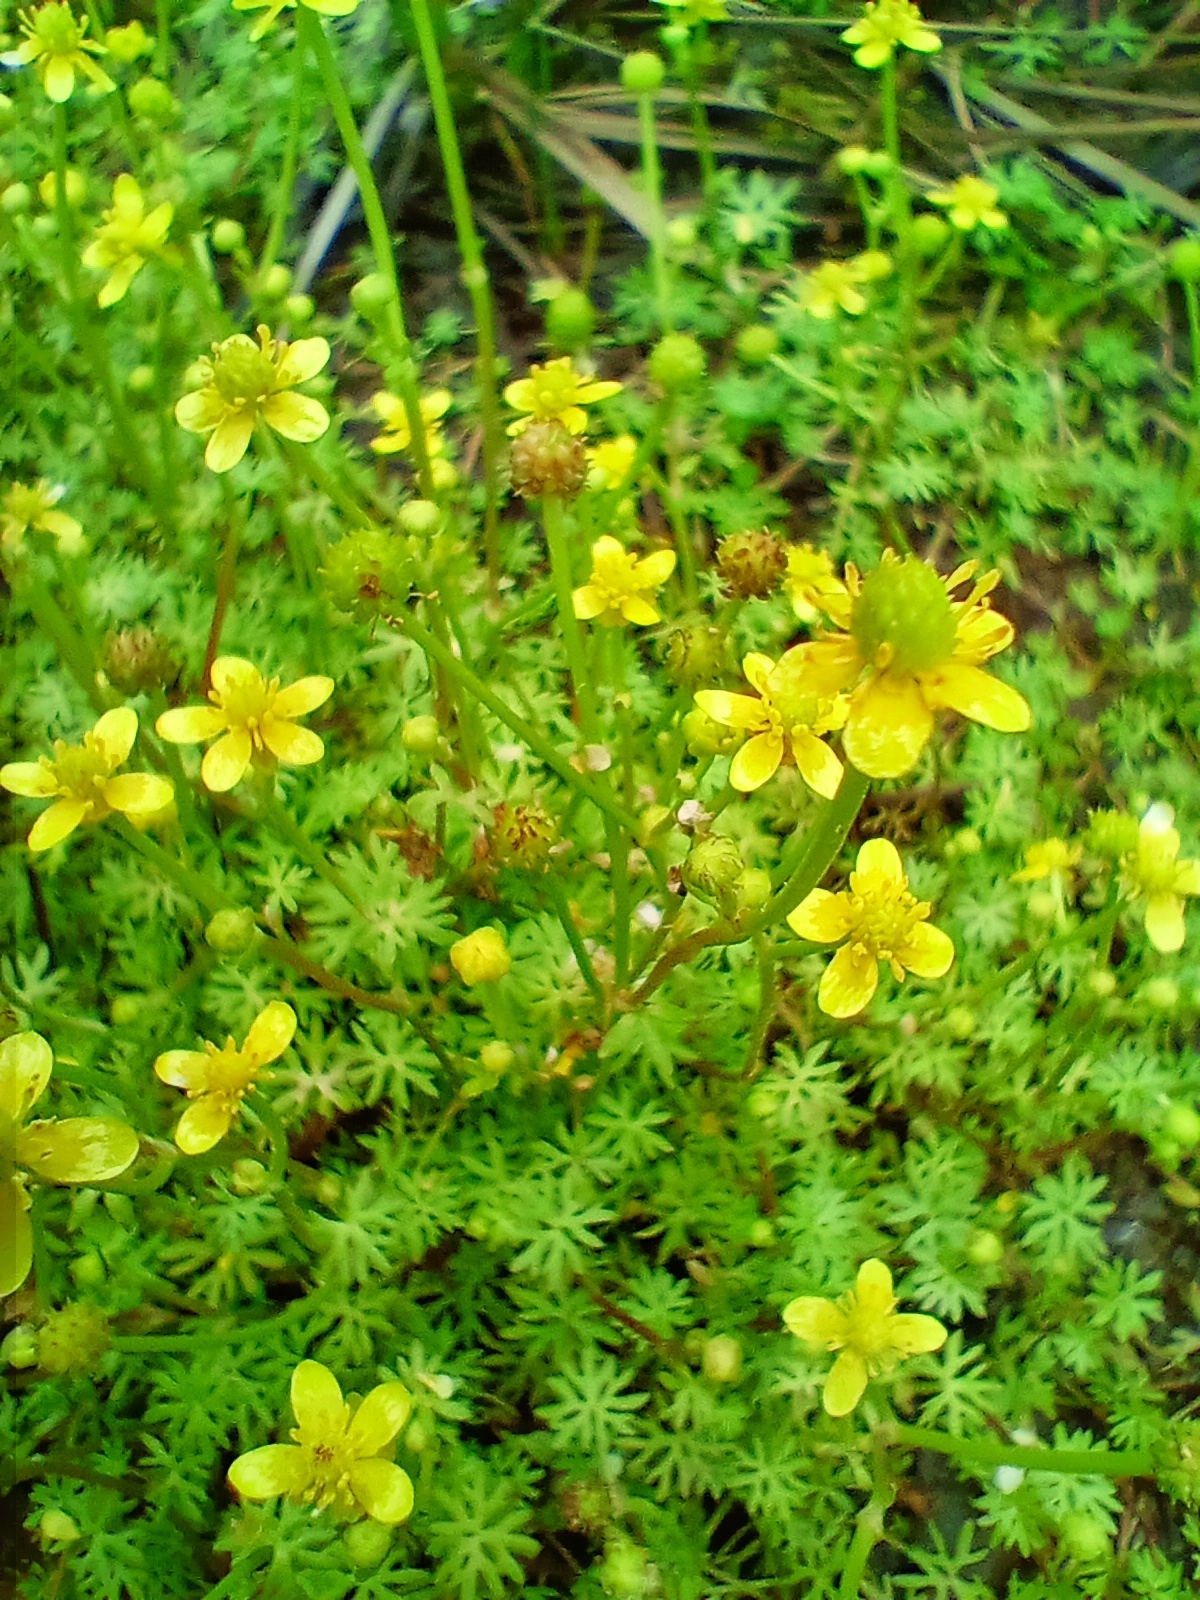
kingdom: Plantae
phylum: Tracheophyta
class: Magnoliopsida
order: Ranunculales
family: Ranunculaceae
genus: Ranunculus
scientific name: Ranunculus gmelinii
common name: Gmelin's buttercup
